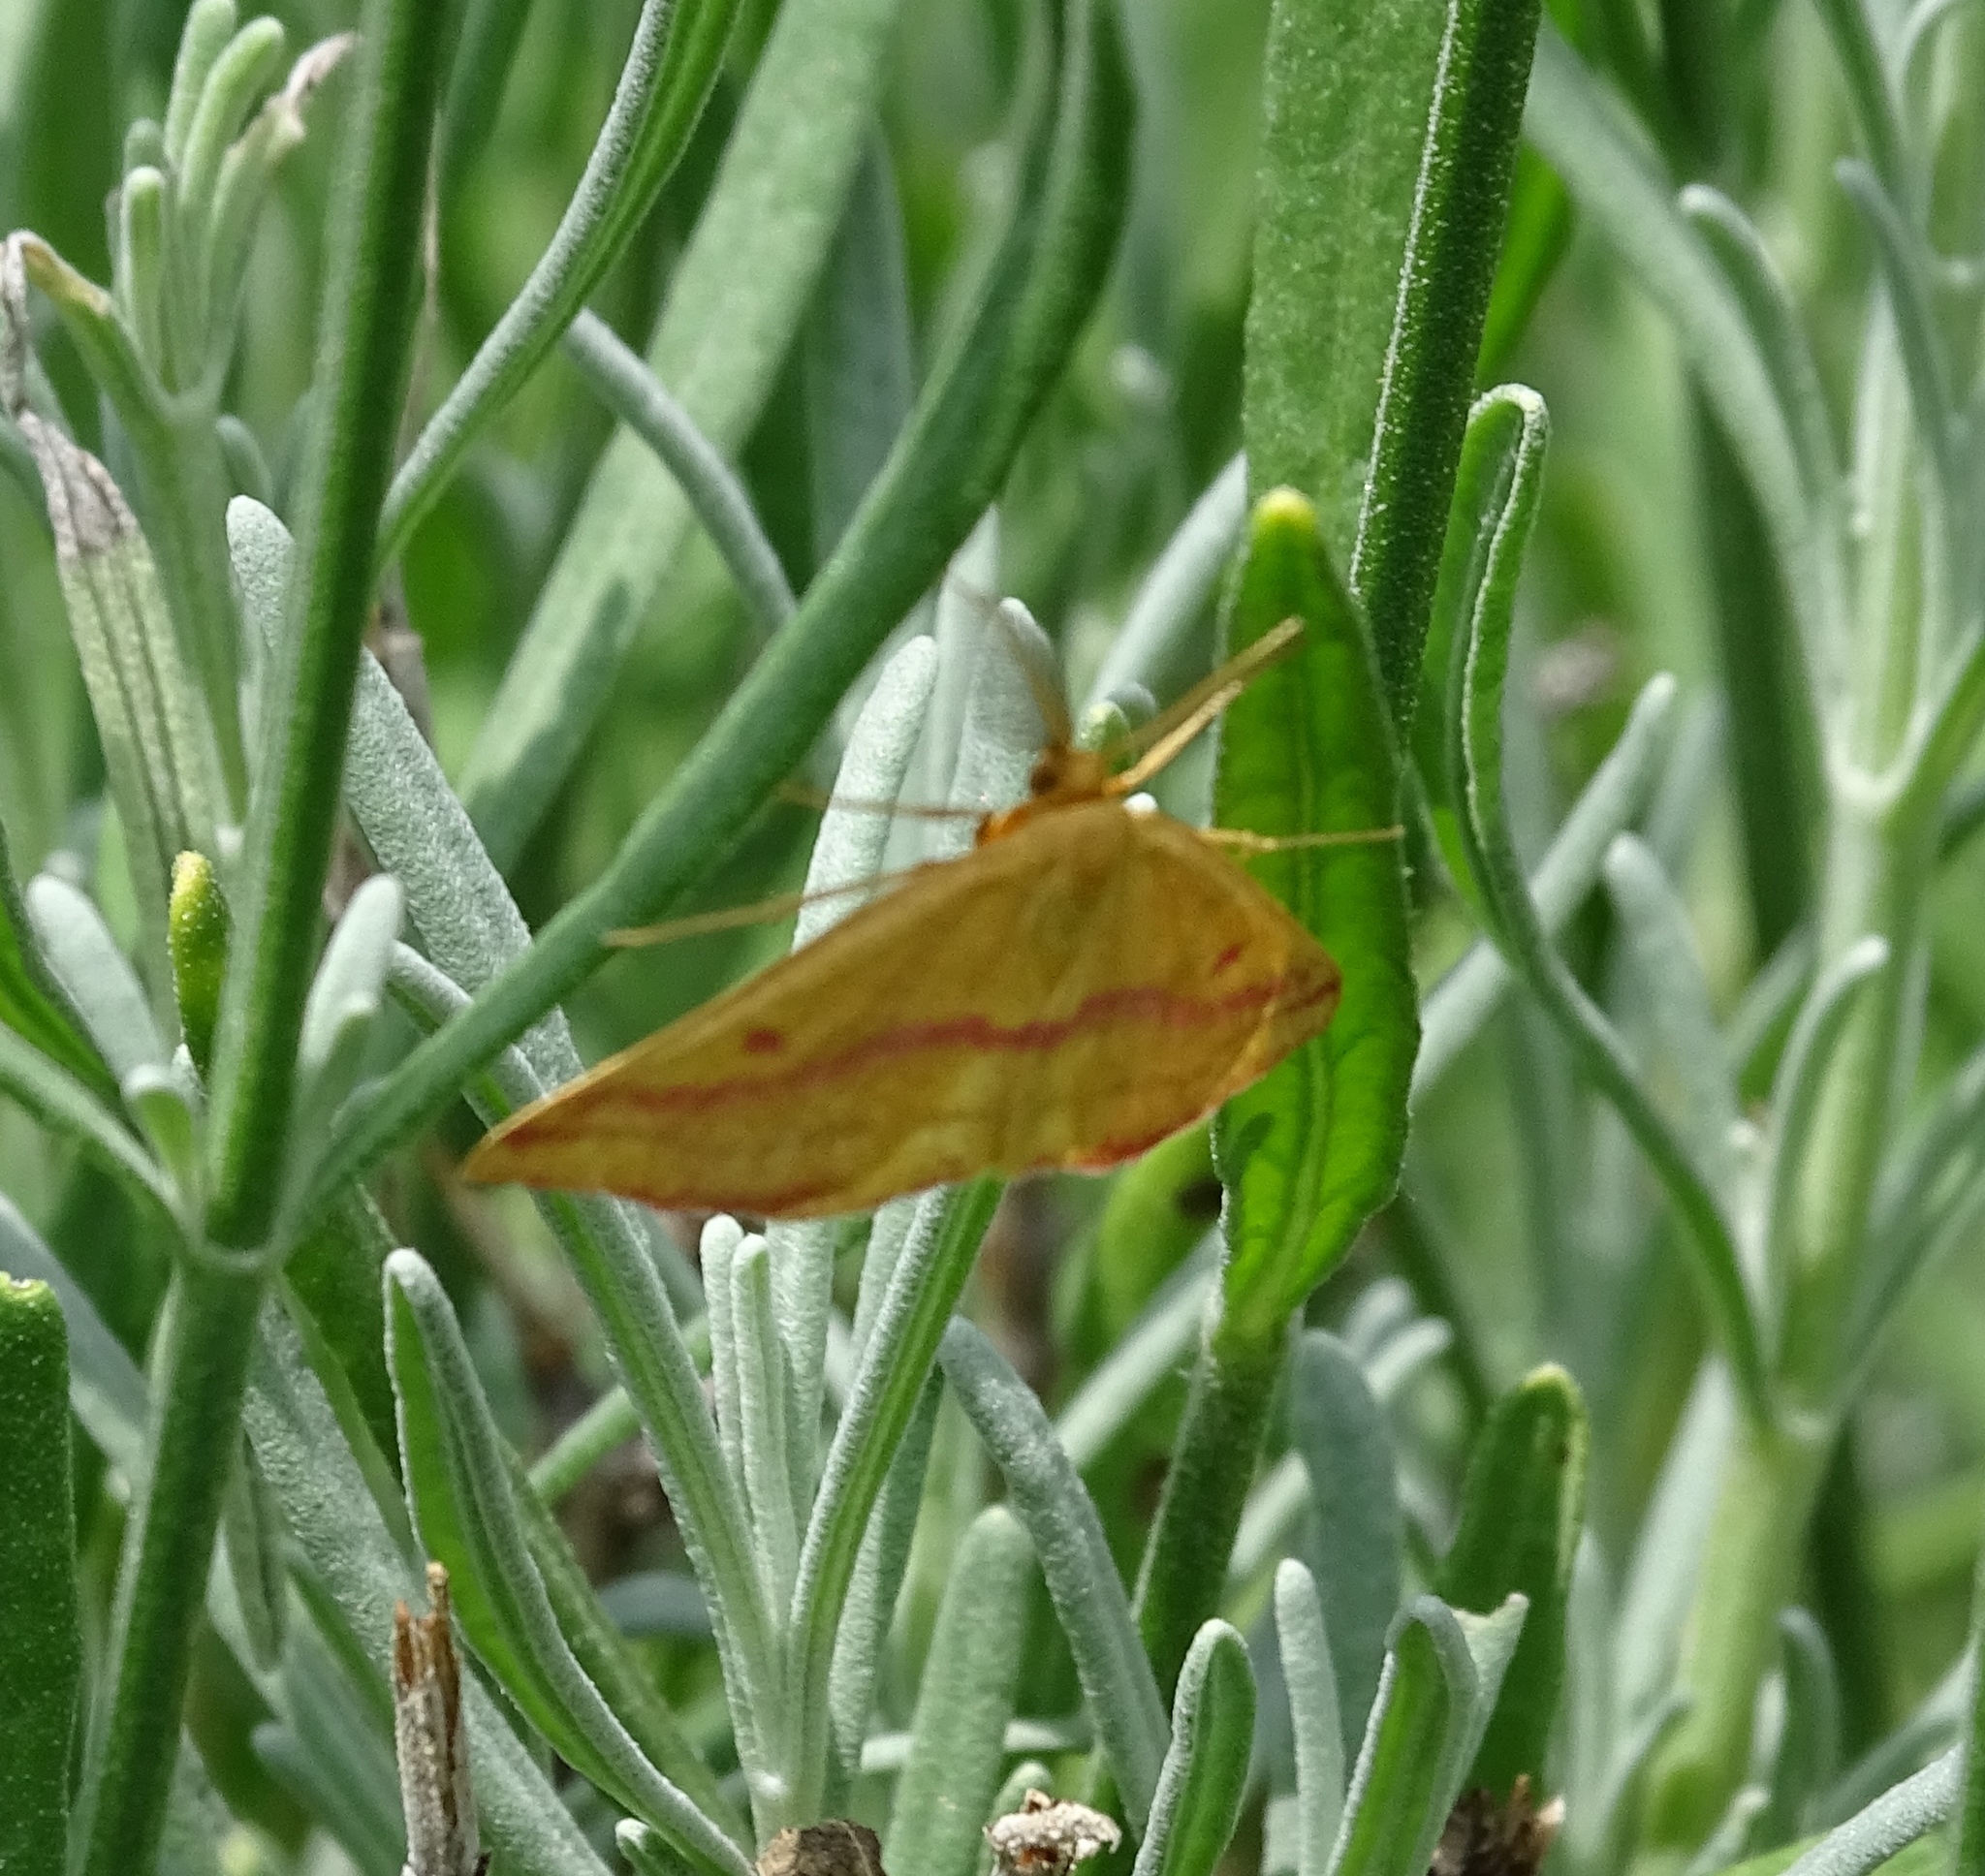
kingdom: Animalia
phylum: Arthropoda
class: Insecta
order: Lepidoptera
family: Geometridae
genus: Haematopis
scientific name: Haematopis grataria
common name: Chickweed geometer
